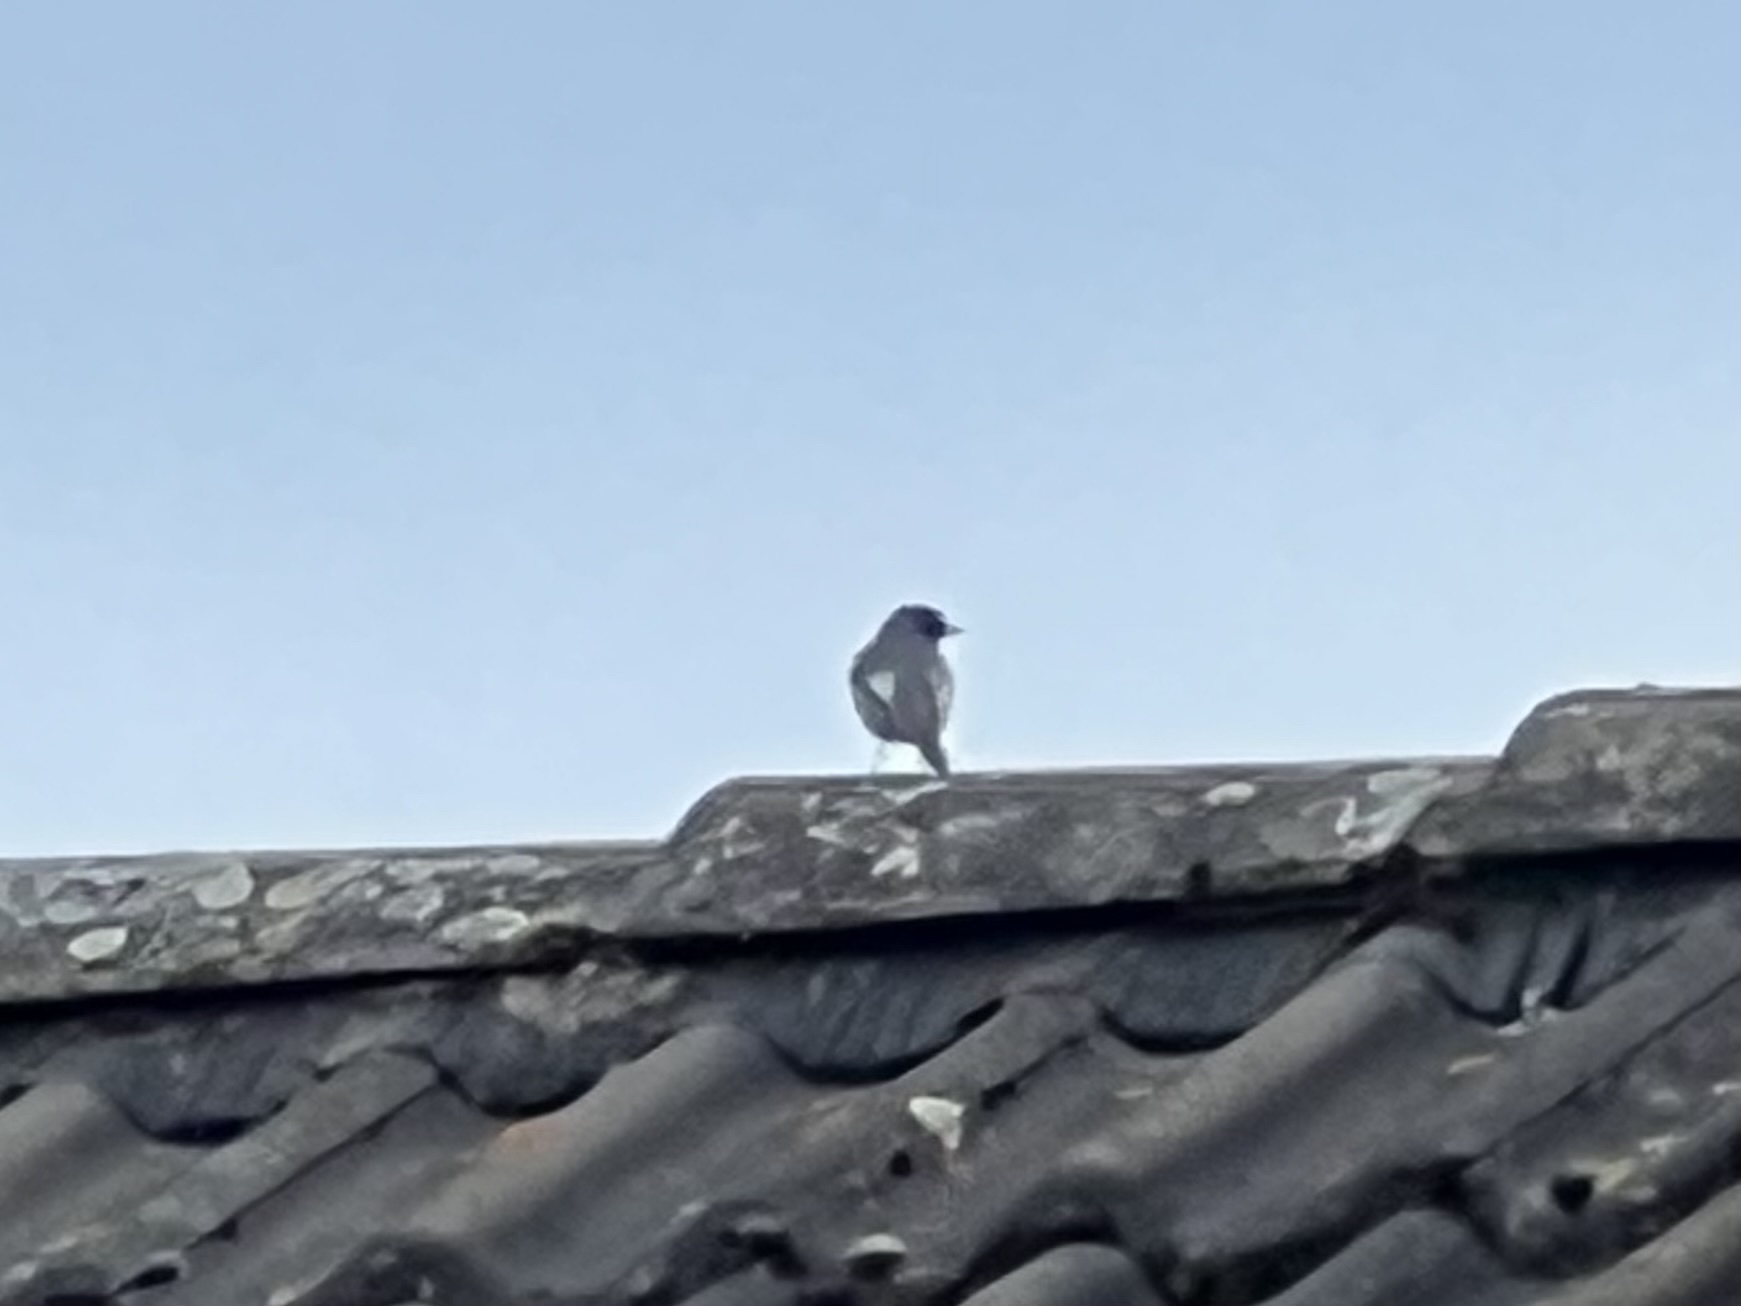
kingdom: Animalia
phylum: Chordata
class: Aves
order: Passeriformes
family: Muscicapidae
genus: Phoenicurus
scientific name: Phoenicurus ochruros
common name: Black redstart
